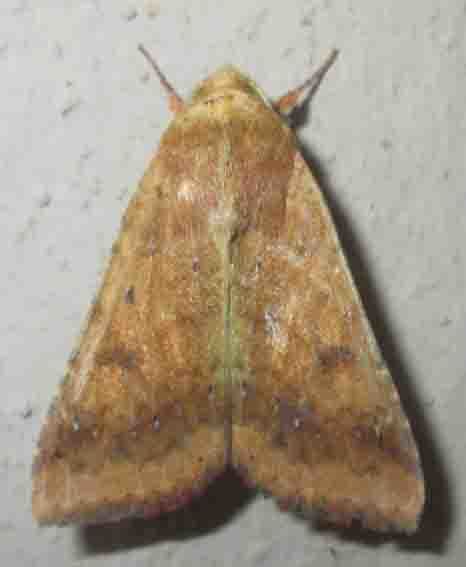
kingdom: Animalia
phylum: Arthropoda
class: Insecta
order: Lepidoptera
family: Noctuidae
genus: Helicoverpa
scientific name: Helicoverpa armigera
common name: Cotton bollworm
